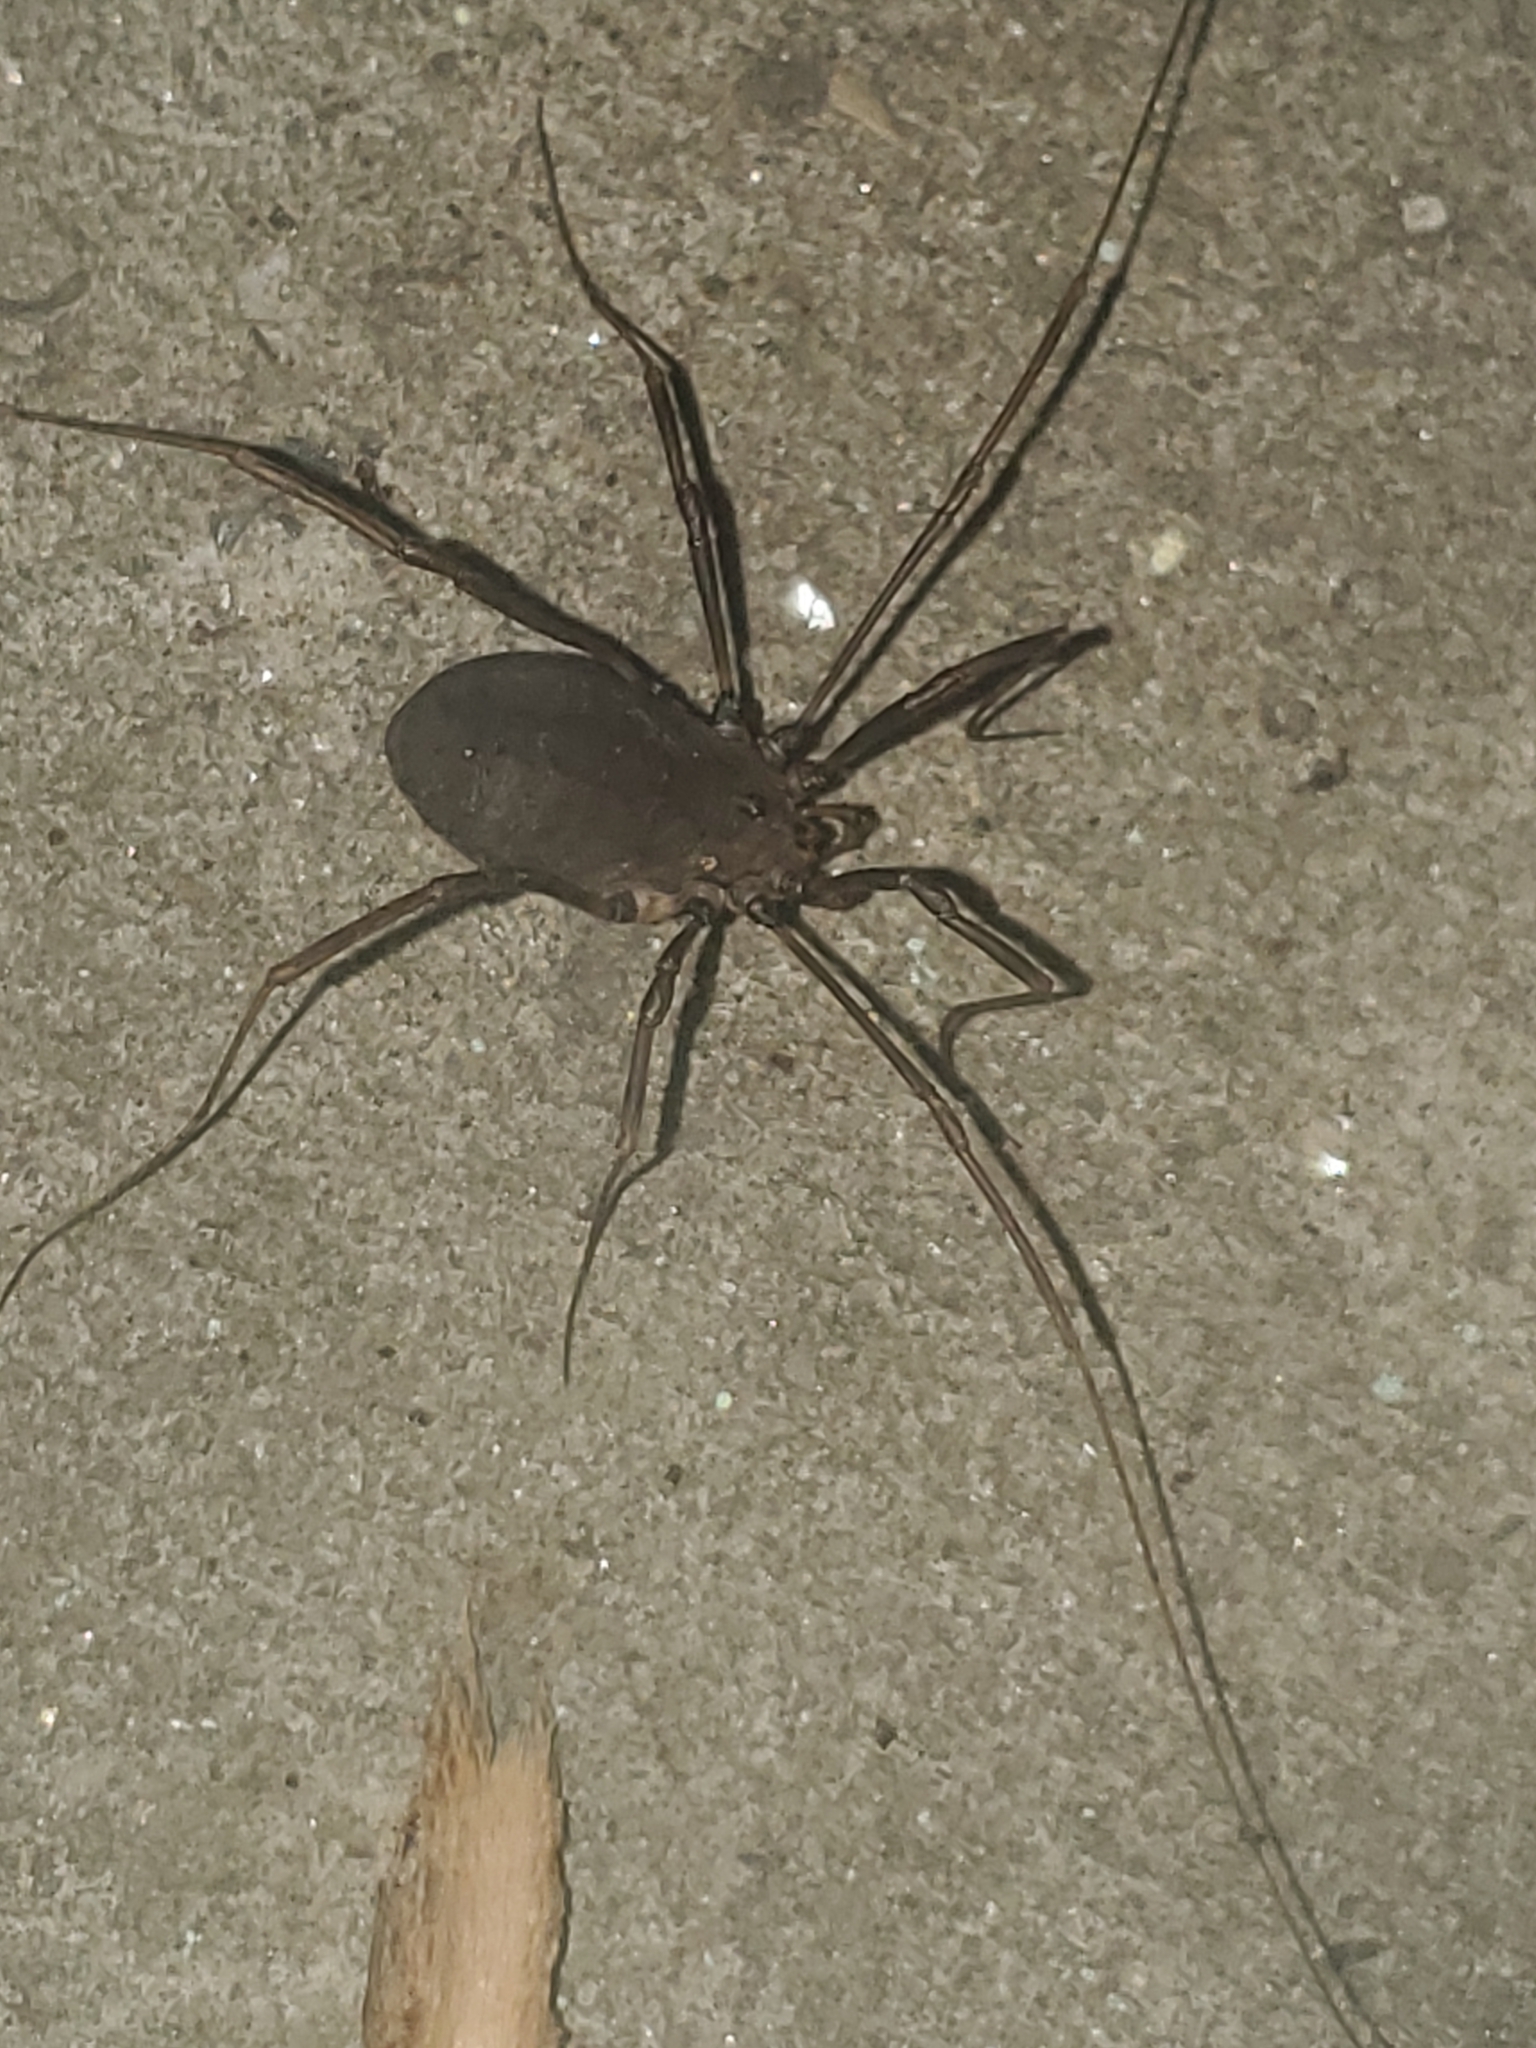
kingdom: Animalia
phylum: Arthropoda
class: Arachnida
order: Opiliones
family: Sclerosomatidae
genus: Hadrobunus
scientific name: Hadrobunus maculosus
